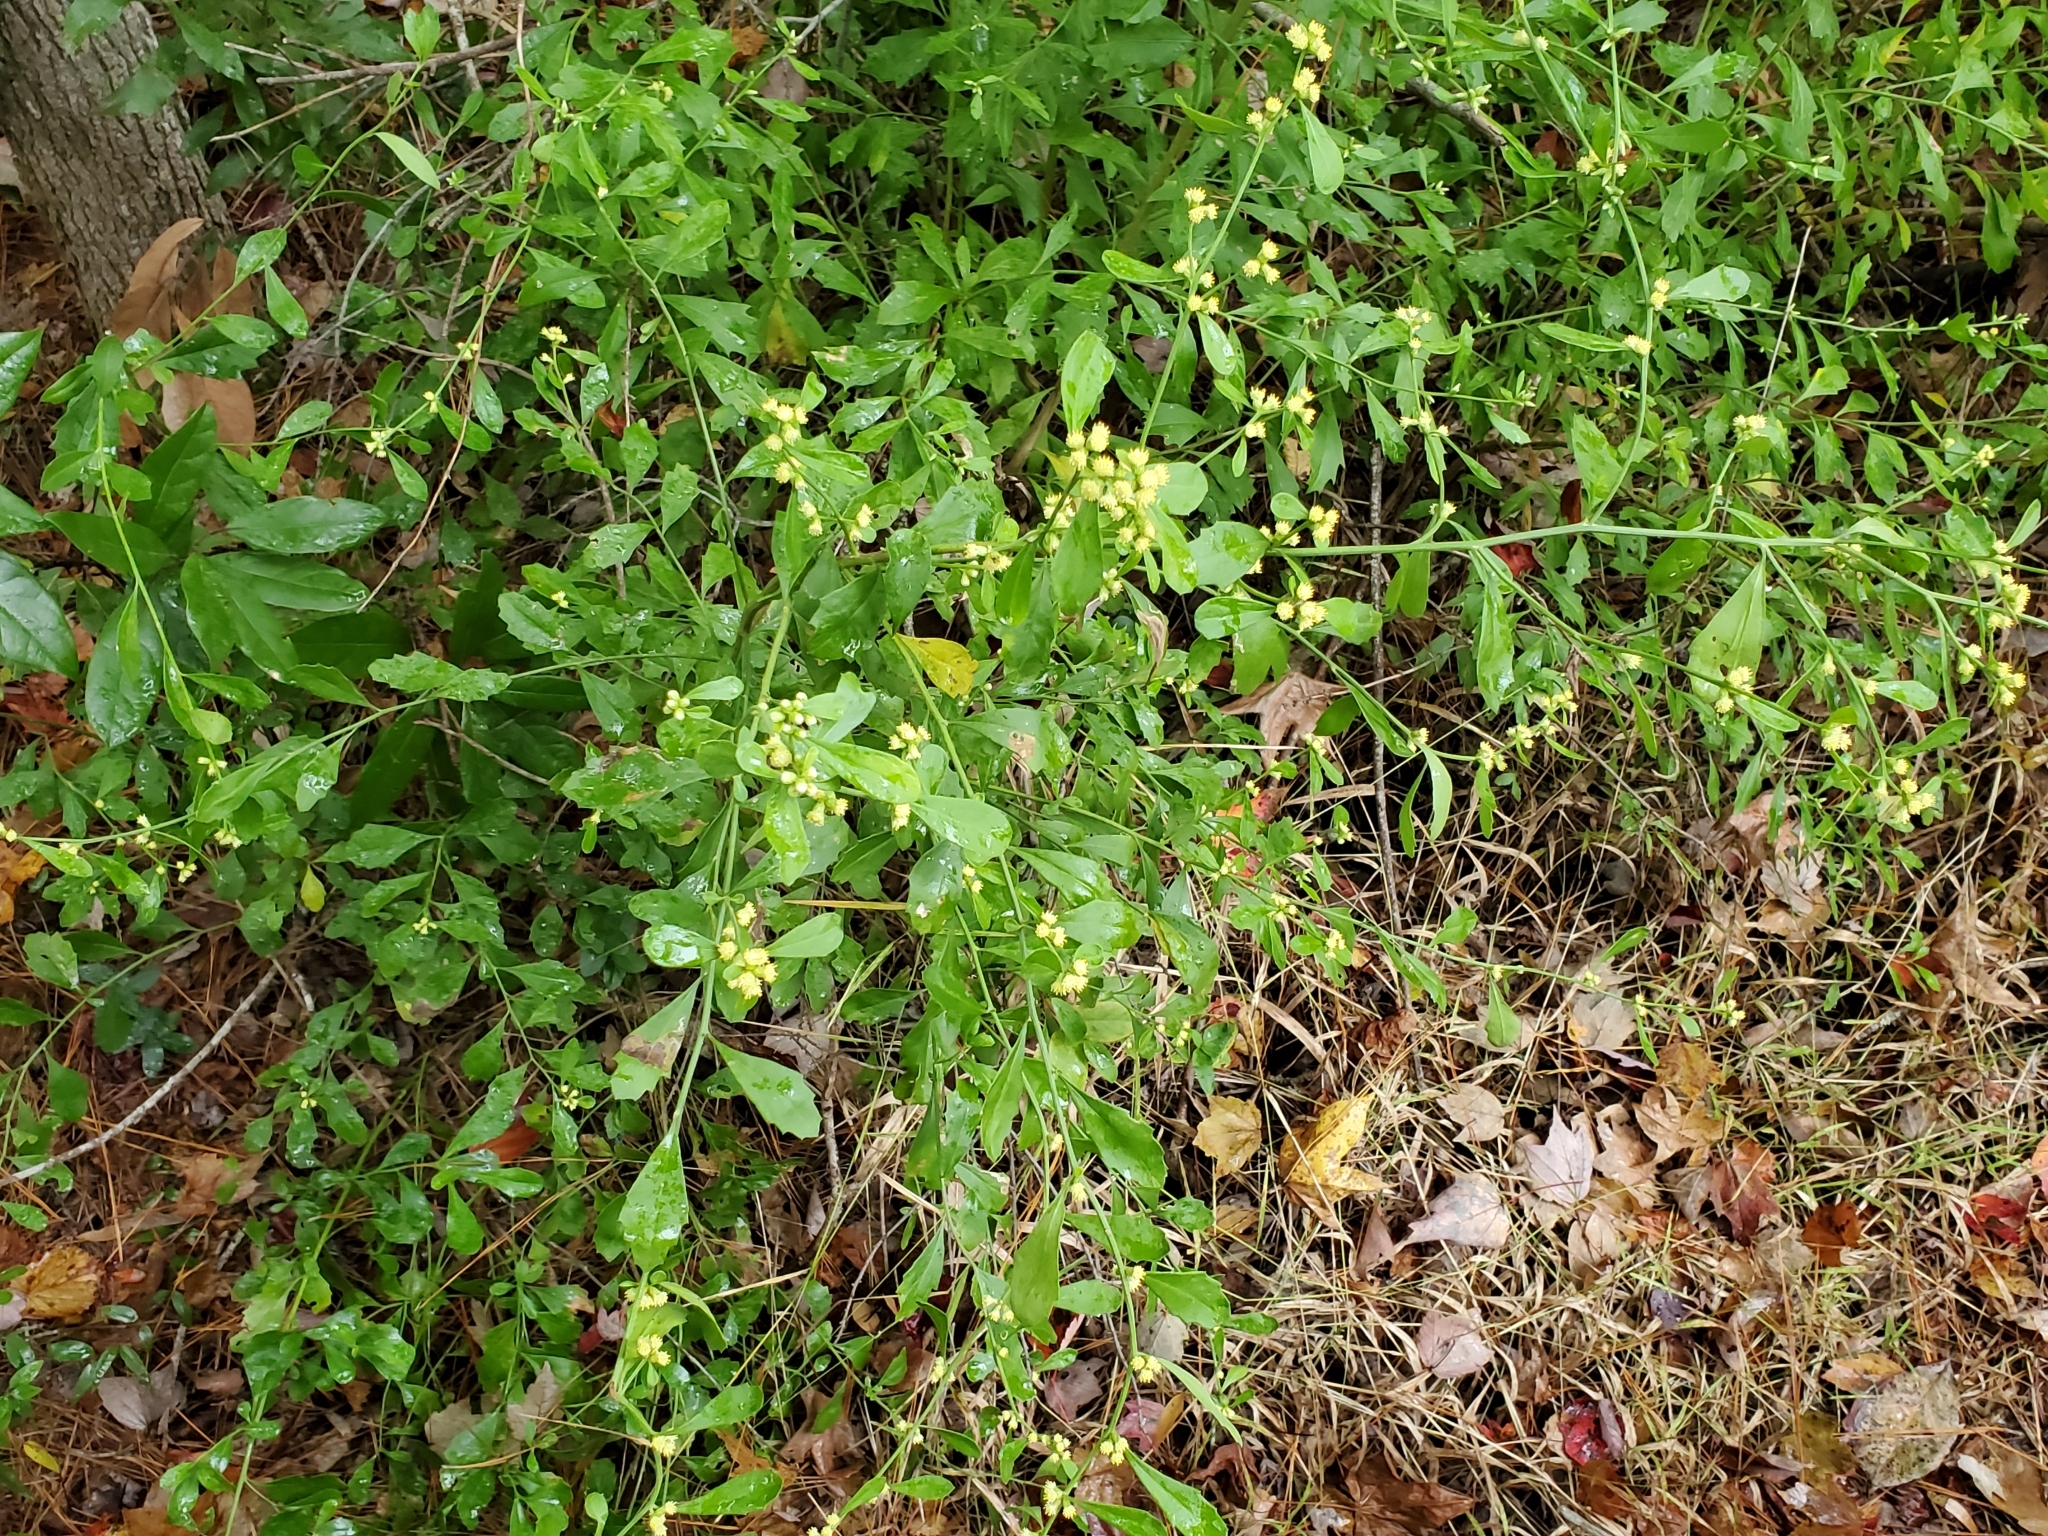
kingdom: Plantae
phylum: Tracheophyta
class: Magnoliopsida
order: Asterales
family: Asteraceae
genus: Baccharis
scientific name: Baccharis glomeruliflora
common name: Silverling groundsel bush
